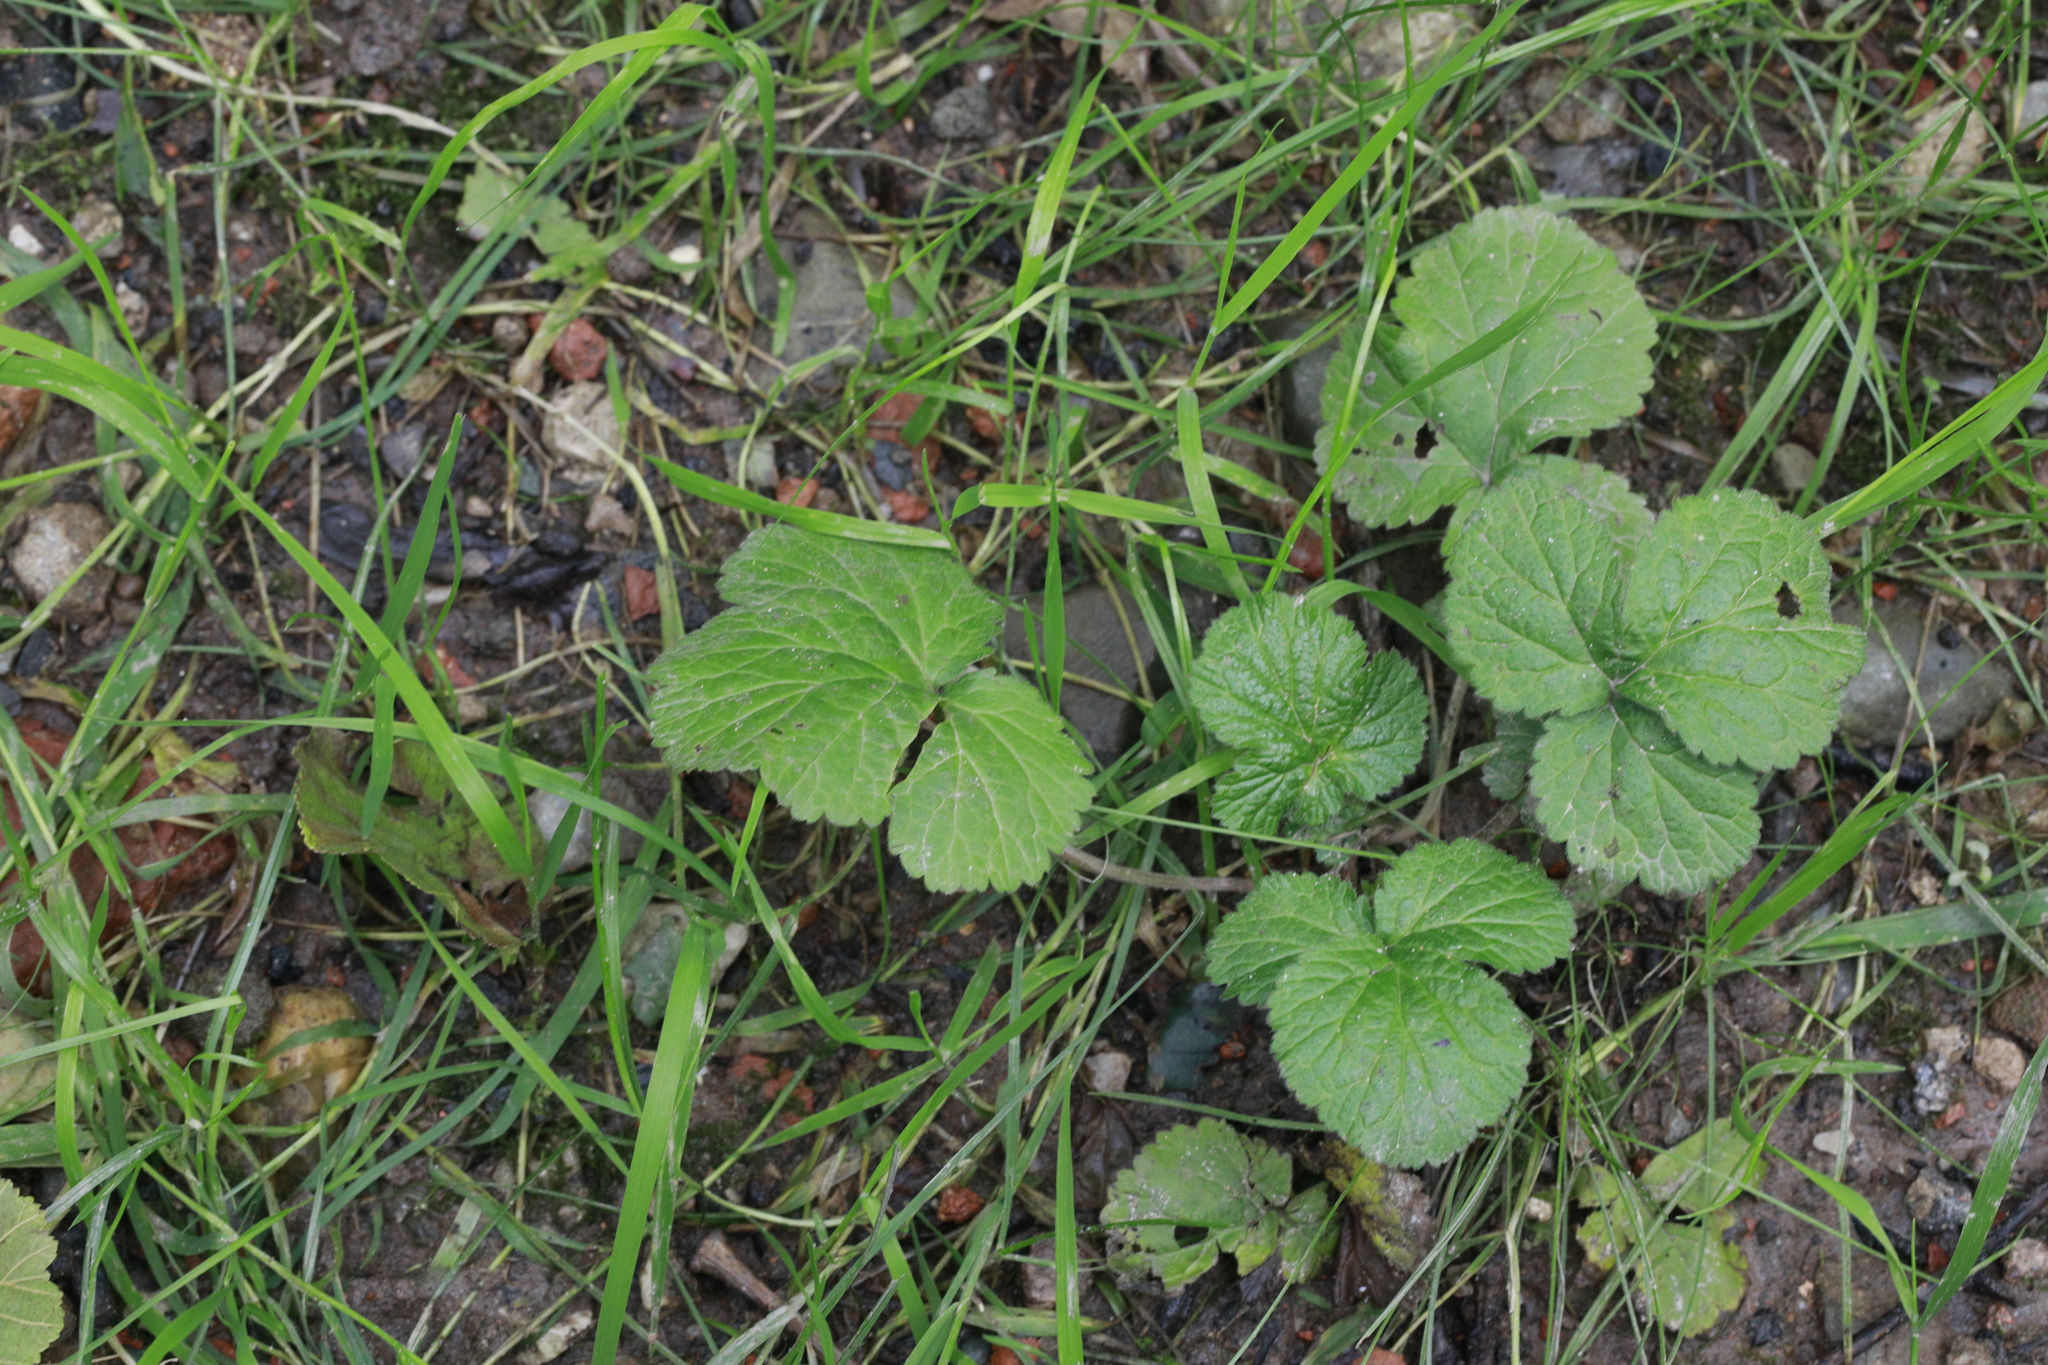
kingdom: Plantae
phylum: Tracheophyta
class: Magnoliopsida
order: Rosales
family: Rosaceae
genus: Geum
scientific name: Geum urbanum
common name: Wood avens
